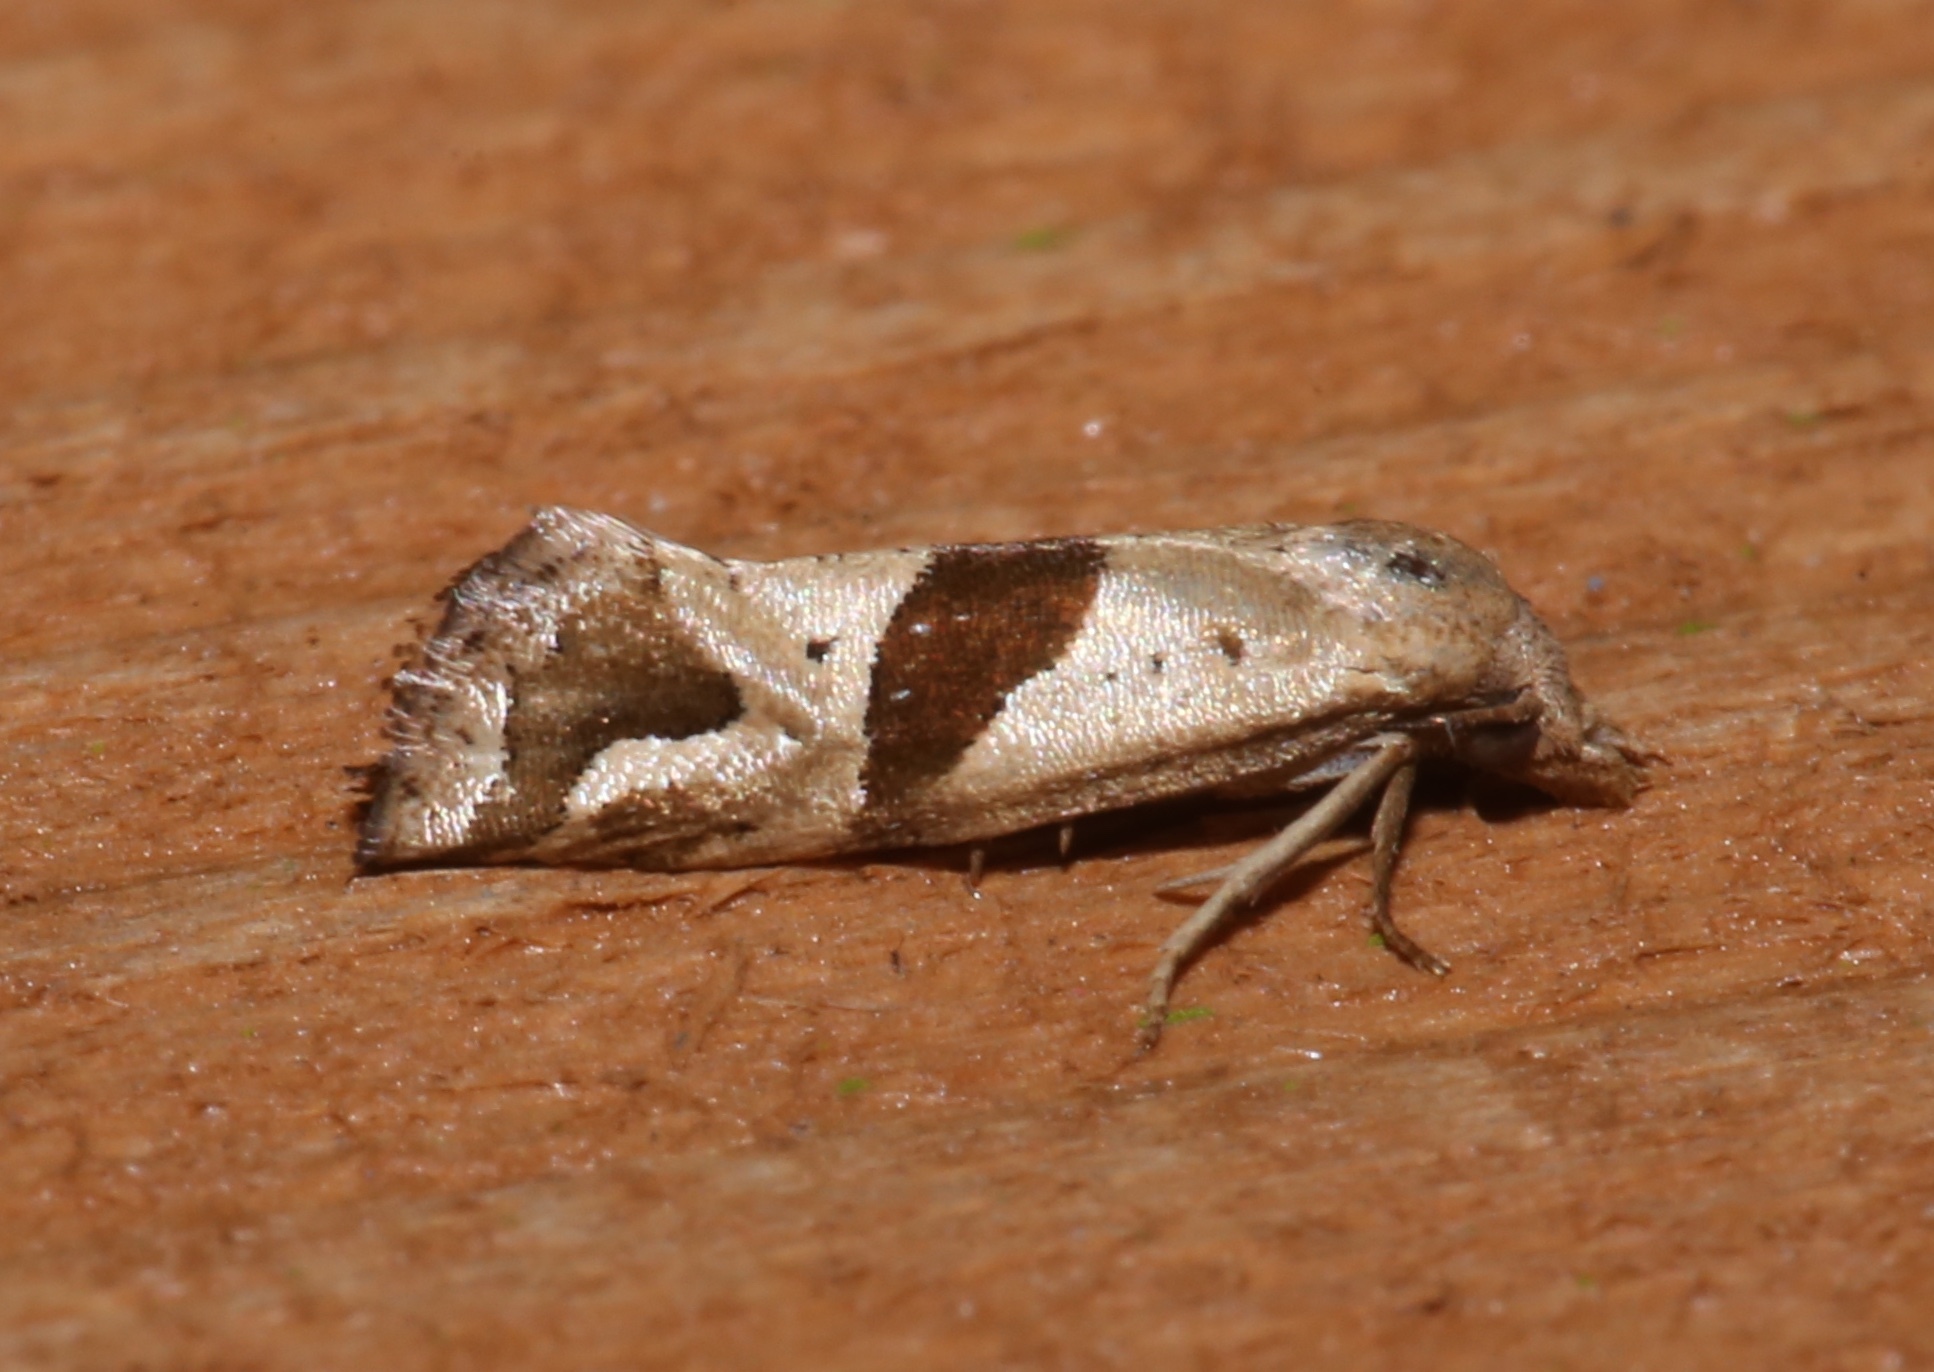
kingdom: Animalia
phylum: Arthropoda
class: Insecta
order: Lepidoptera
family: Tortricidae
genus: Eugnosta
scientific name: Eugnosta sartana
